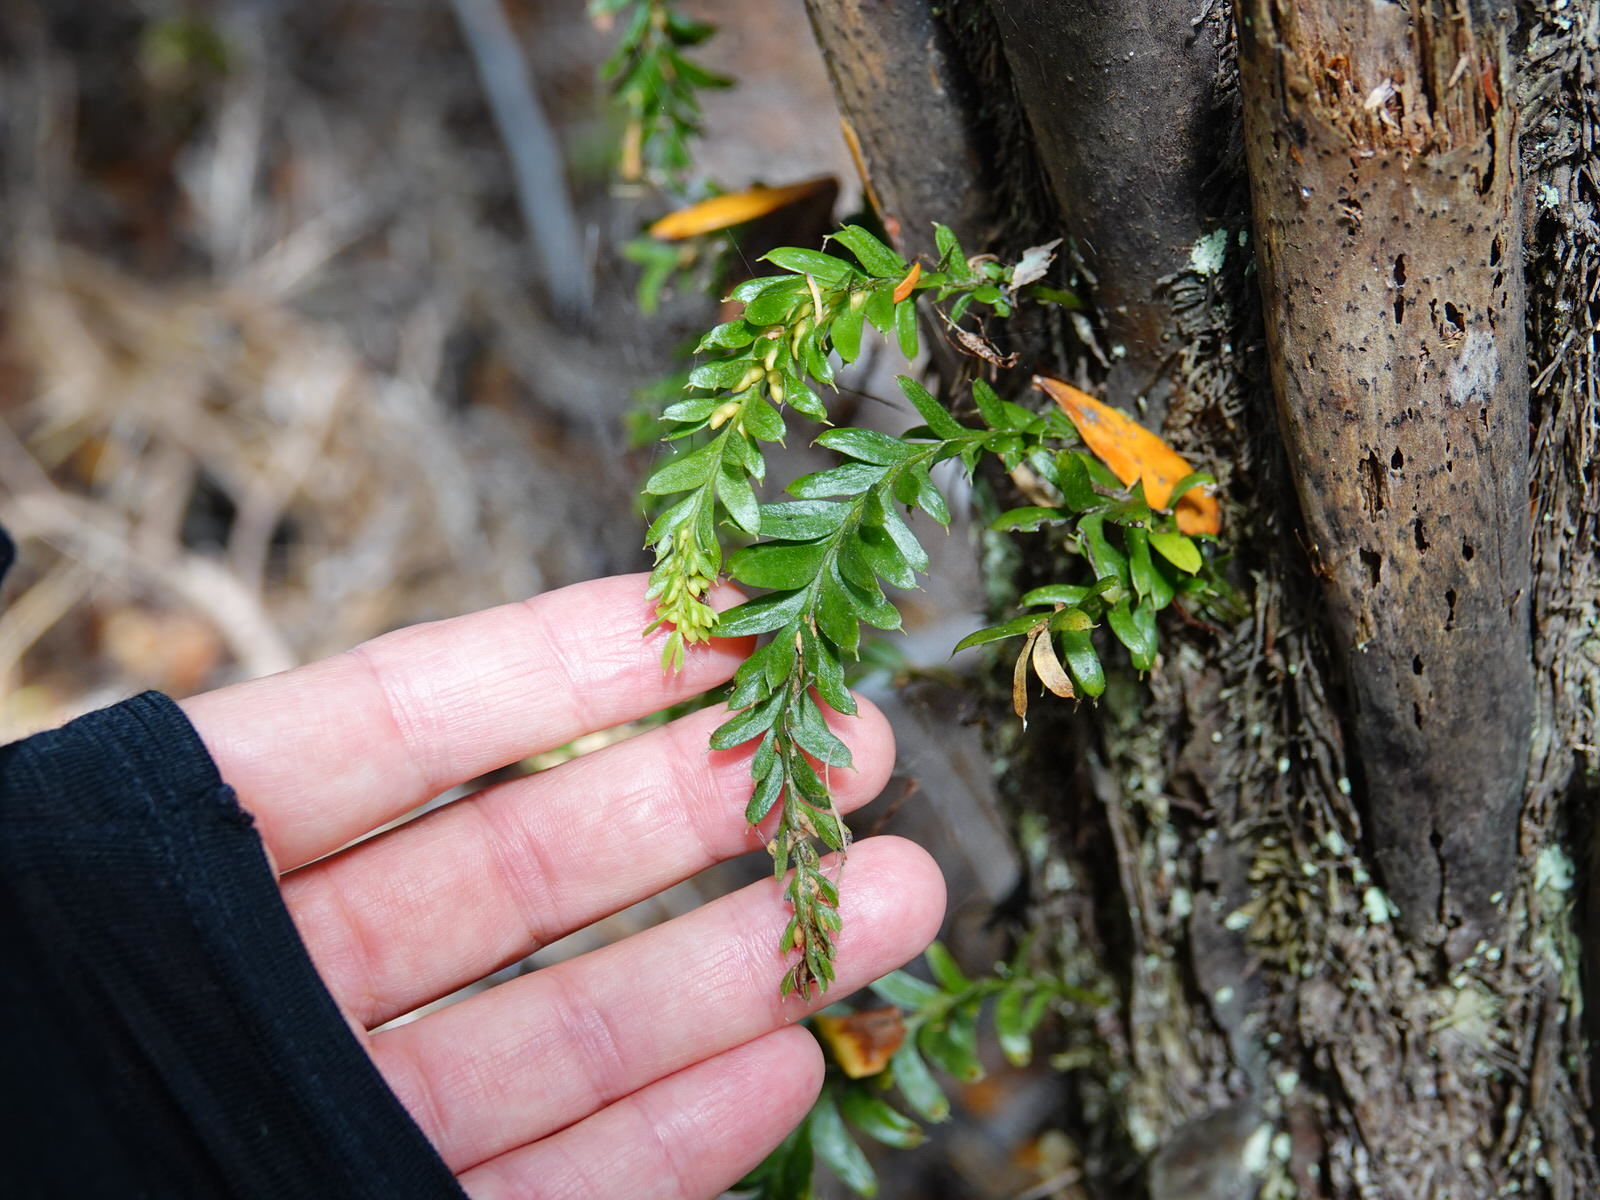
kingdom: Plantae
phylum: Tracheophyta
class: Polypodiopsida
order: Psilotales
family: Psilotaceae
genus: Tmesipteris
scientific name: Tmesipteris tannensis
